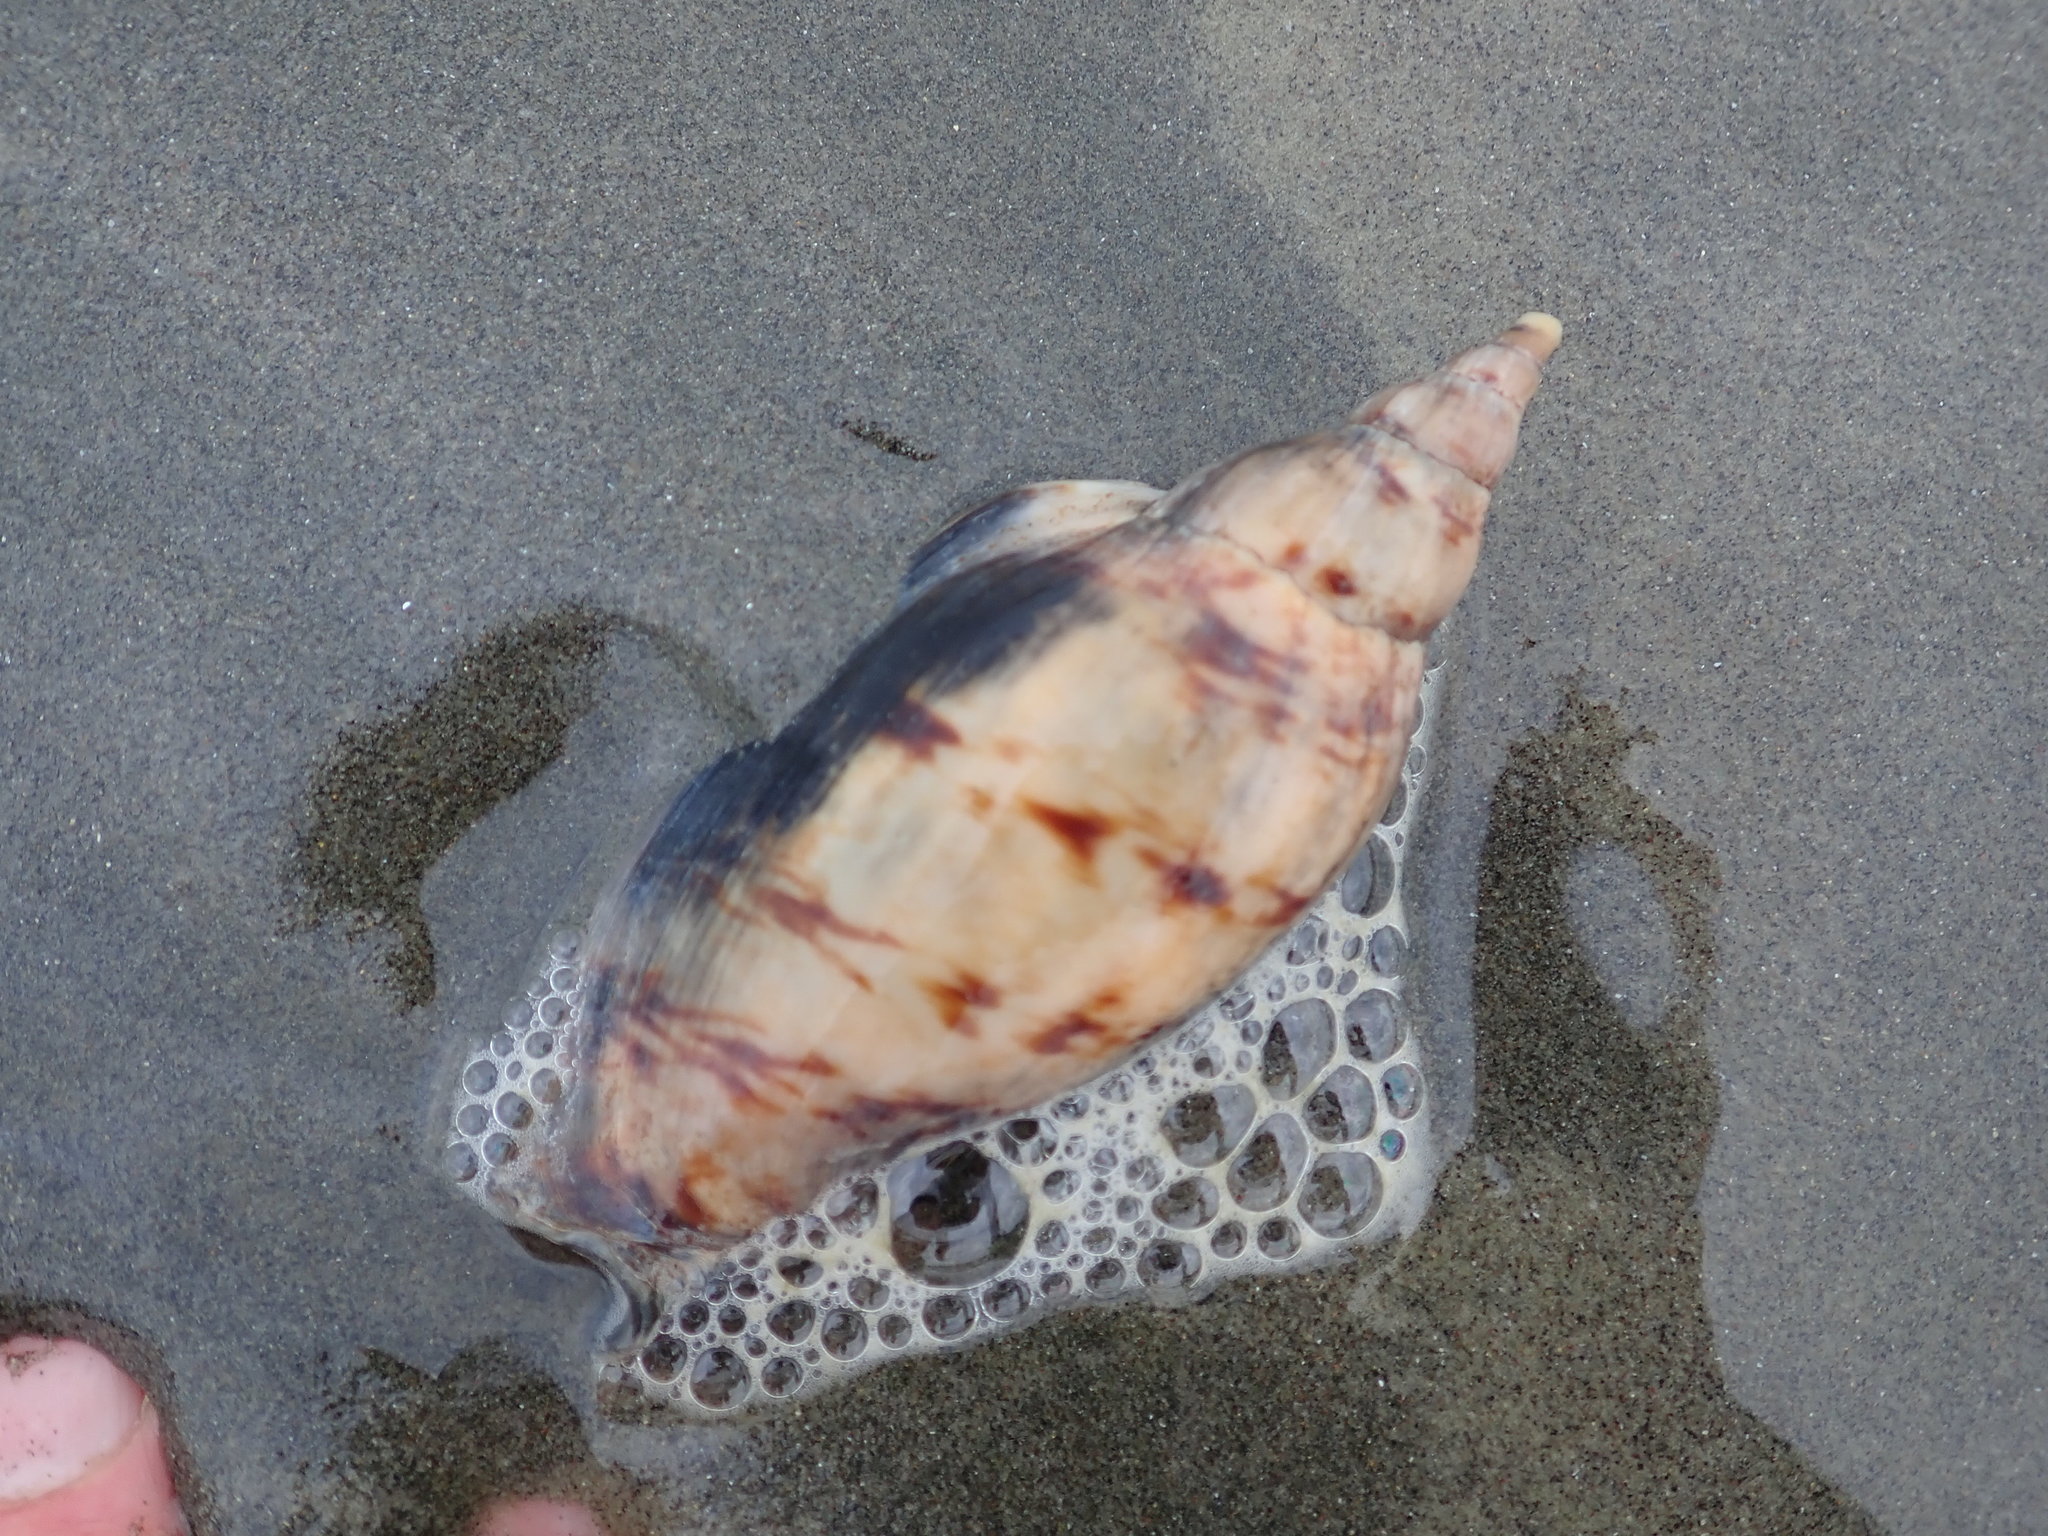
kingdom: Animalia
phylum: Mollusca
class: Gastropoda
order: Neogastropoda
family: Volutidae
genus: Alcithoe
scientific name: Alcithoe arabica
